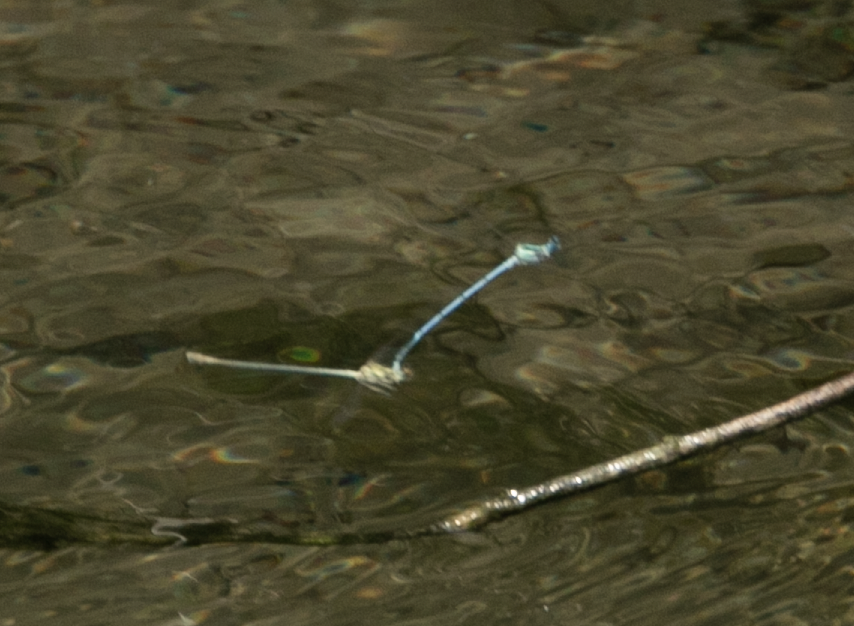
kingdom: Animalia
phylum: Arthropoda
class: Insecta
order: Odonata
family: Platycnemididae
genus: Platycnemis
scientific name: Platycnemis pennipes
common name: White-legged damselfly
